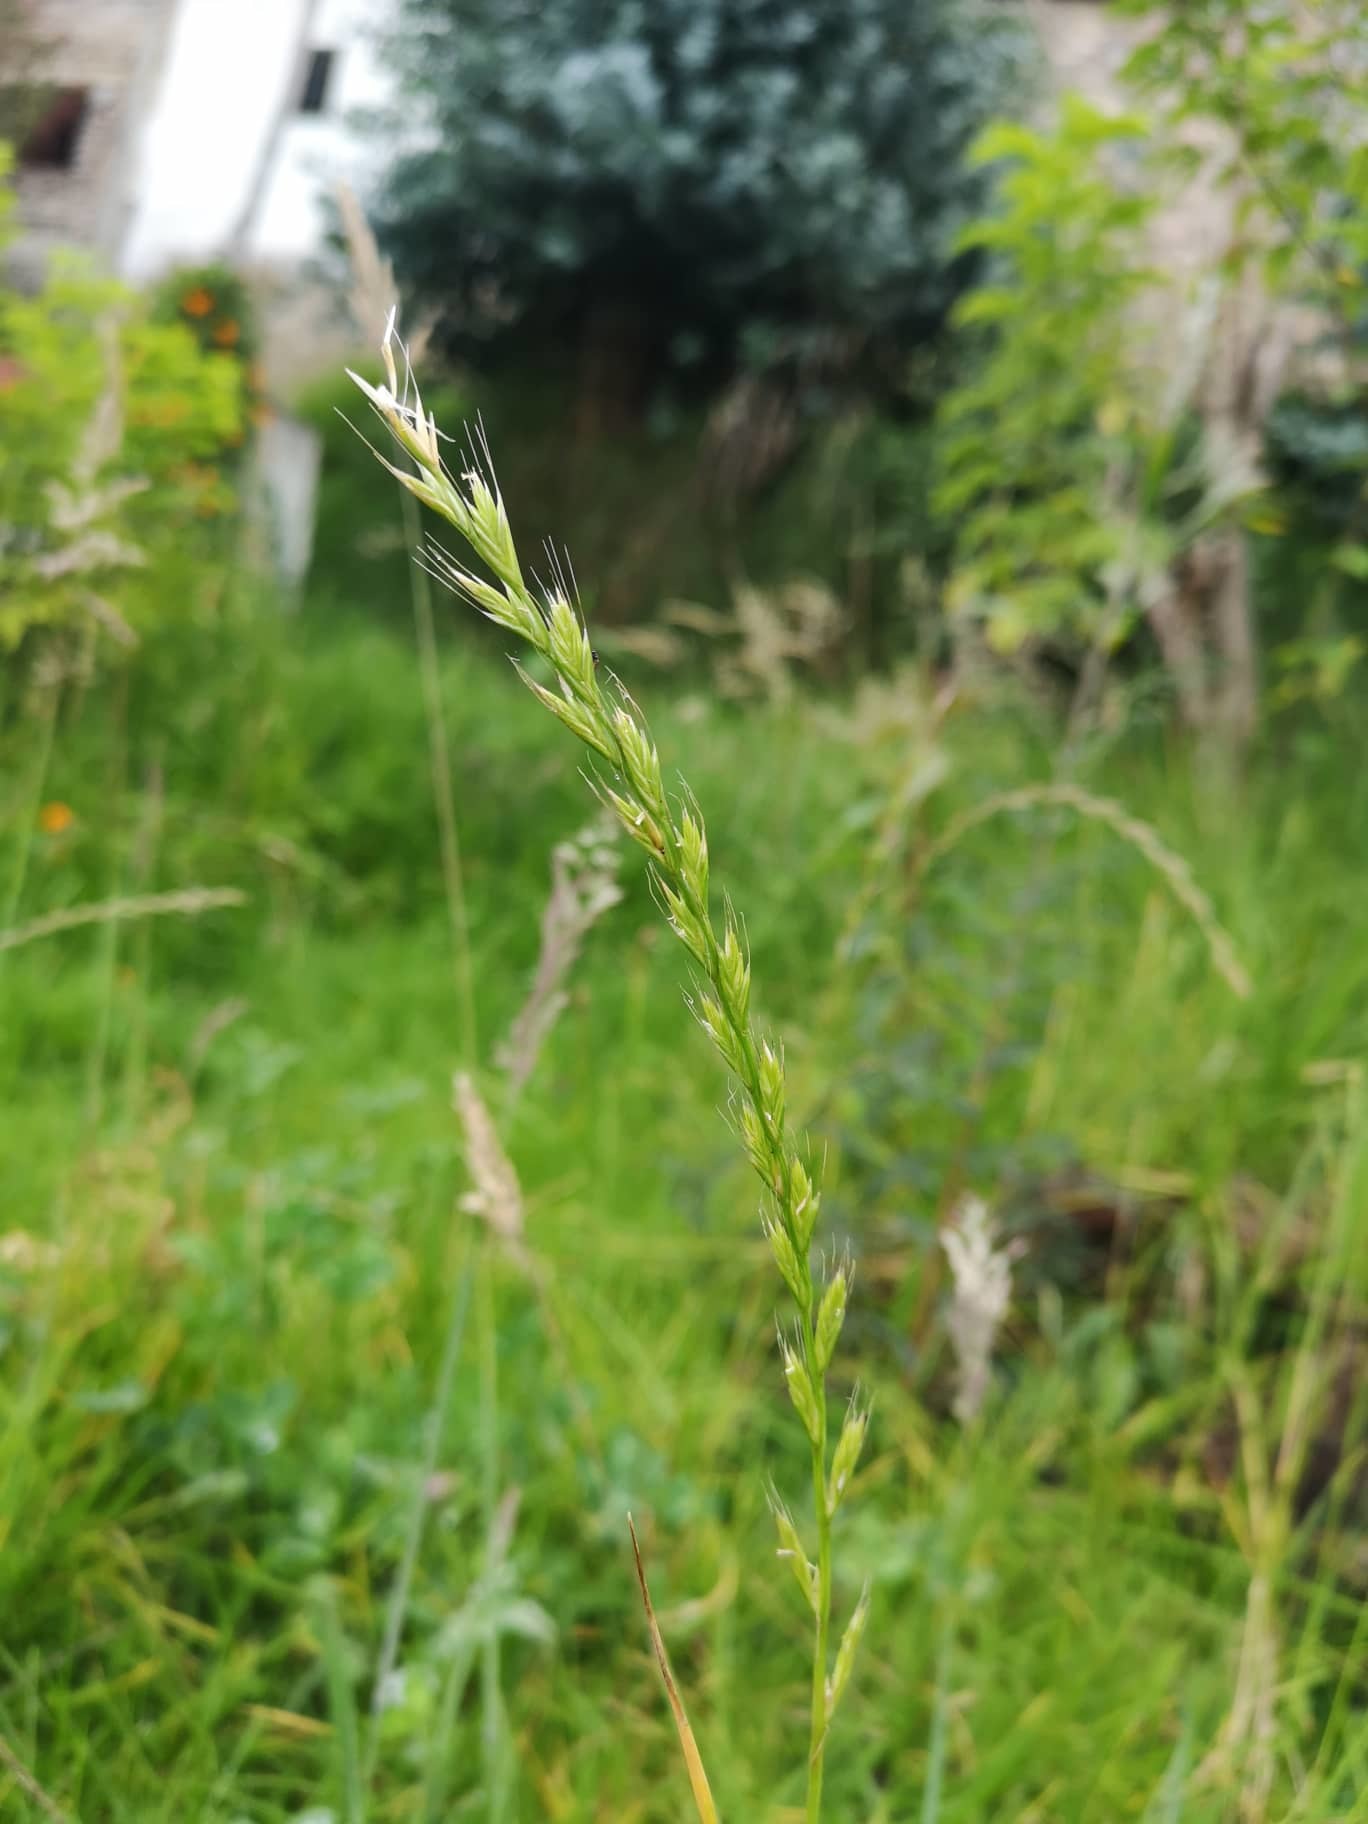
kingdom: Plantae
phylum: Tracheophyta
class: Liliopsida
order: Poales
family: Poaceae
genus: Lolium
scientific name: Lolium perenne
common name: Perennial ryegrass
